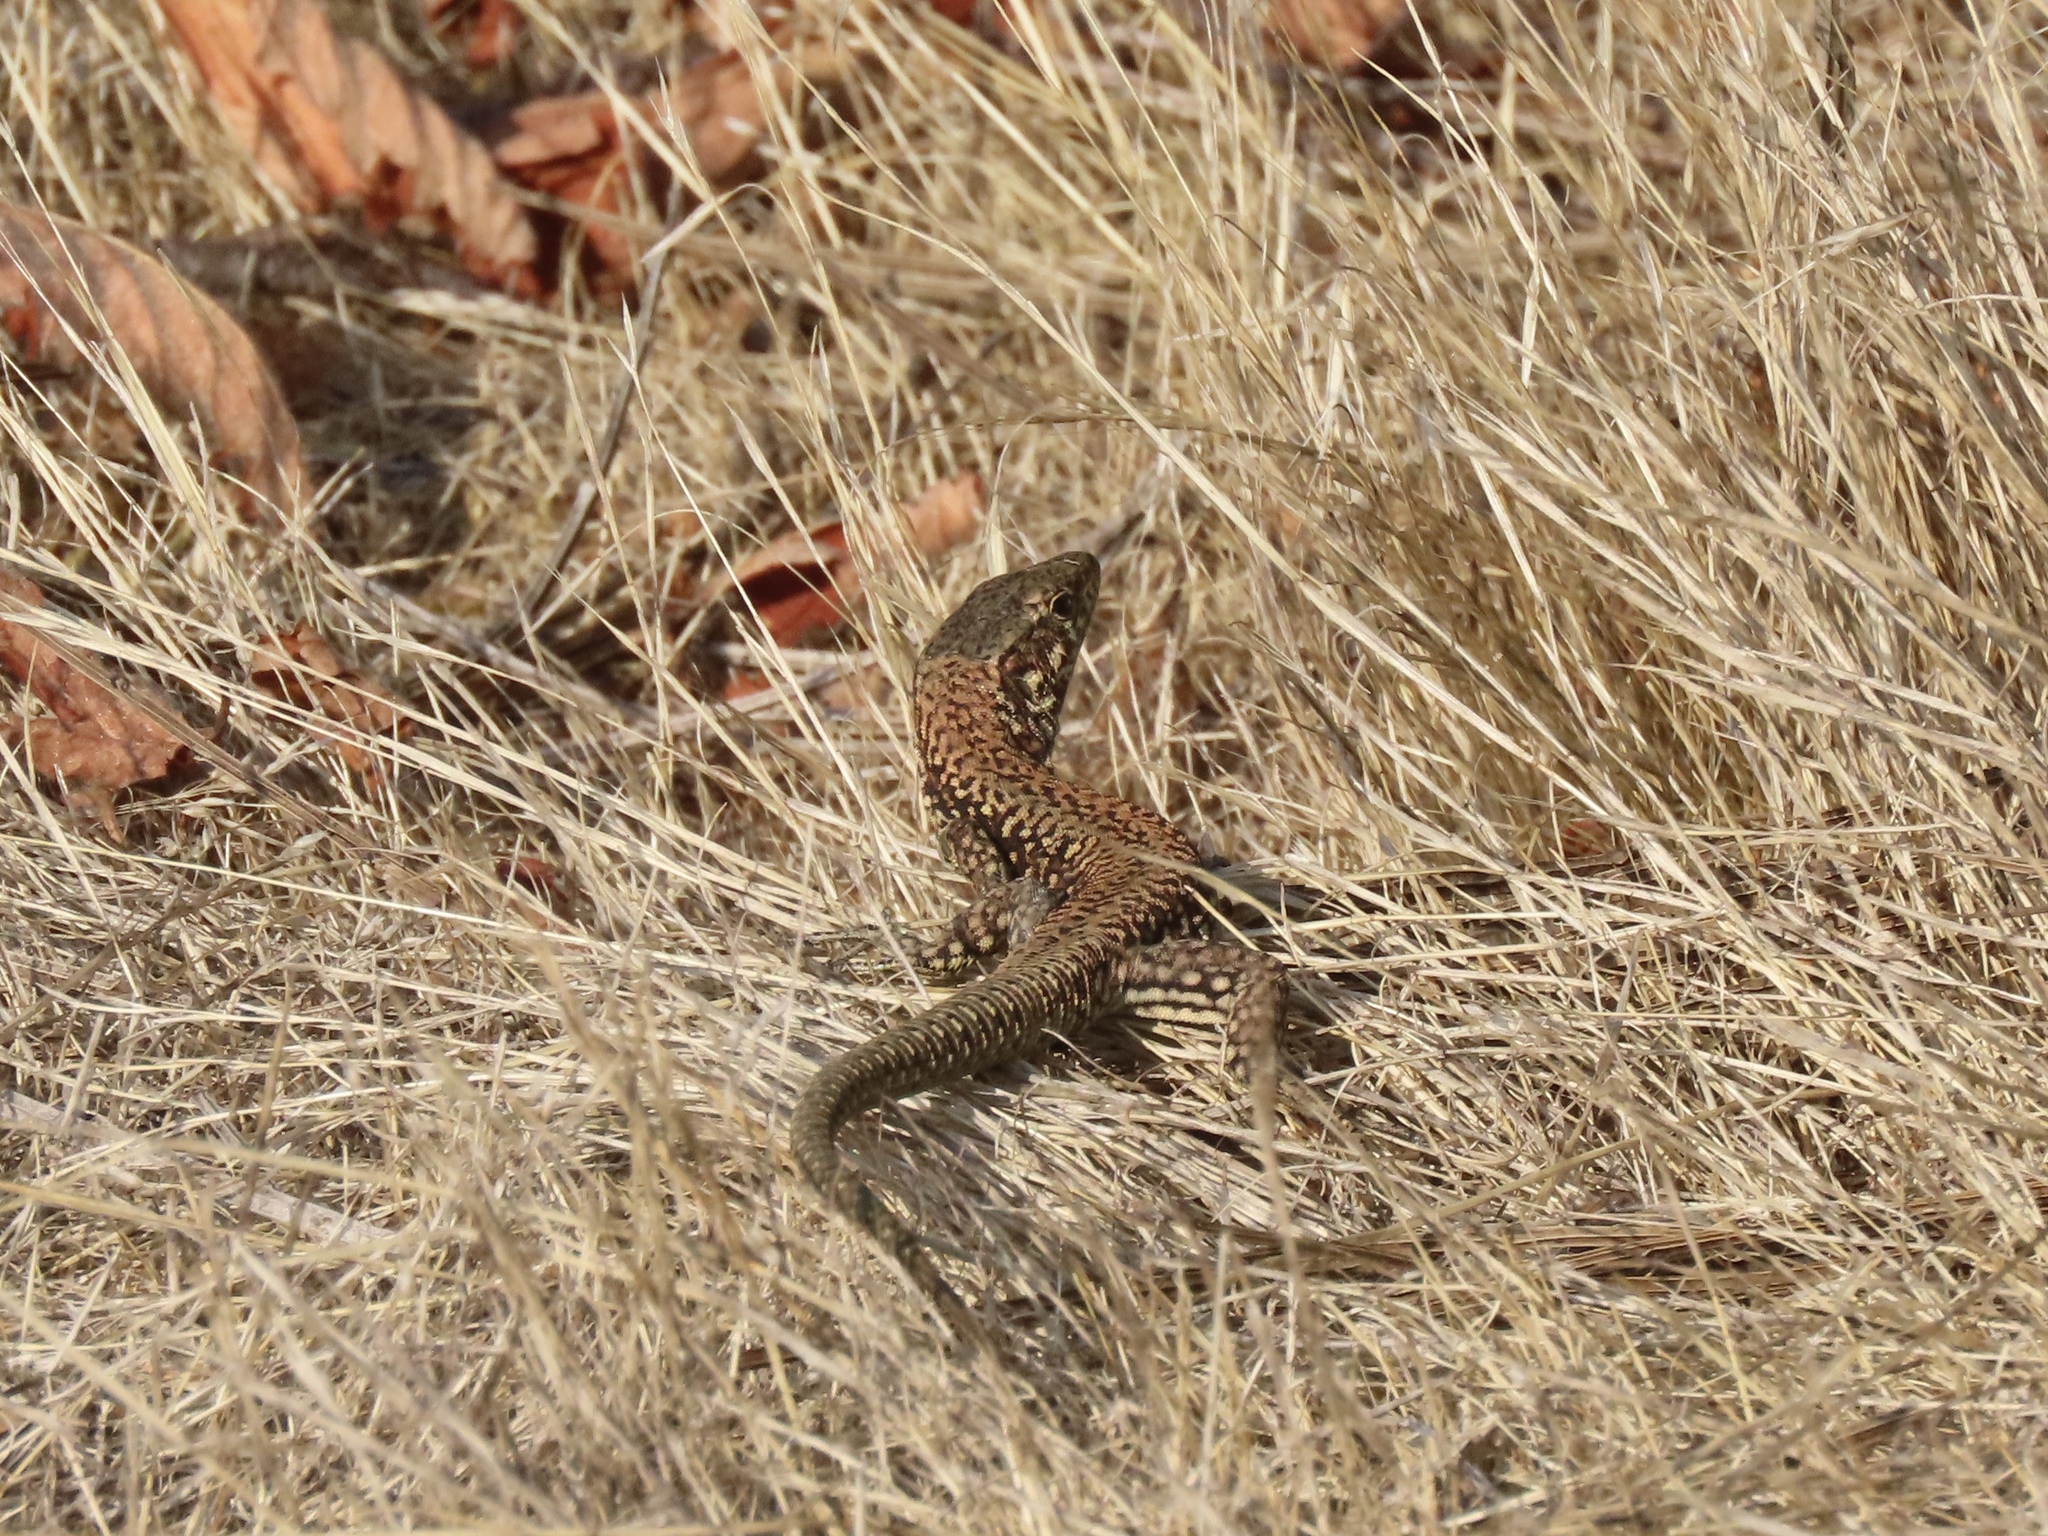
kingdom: Animalia
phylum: Chordata
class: Squamata
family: Lacertidae
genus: Podarcis
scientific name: Podarcis muralis
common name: Common wall lizard
